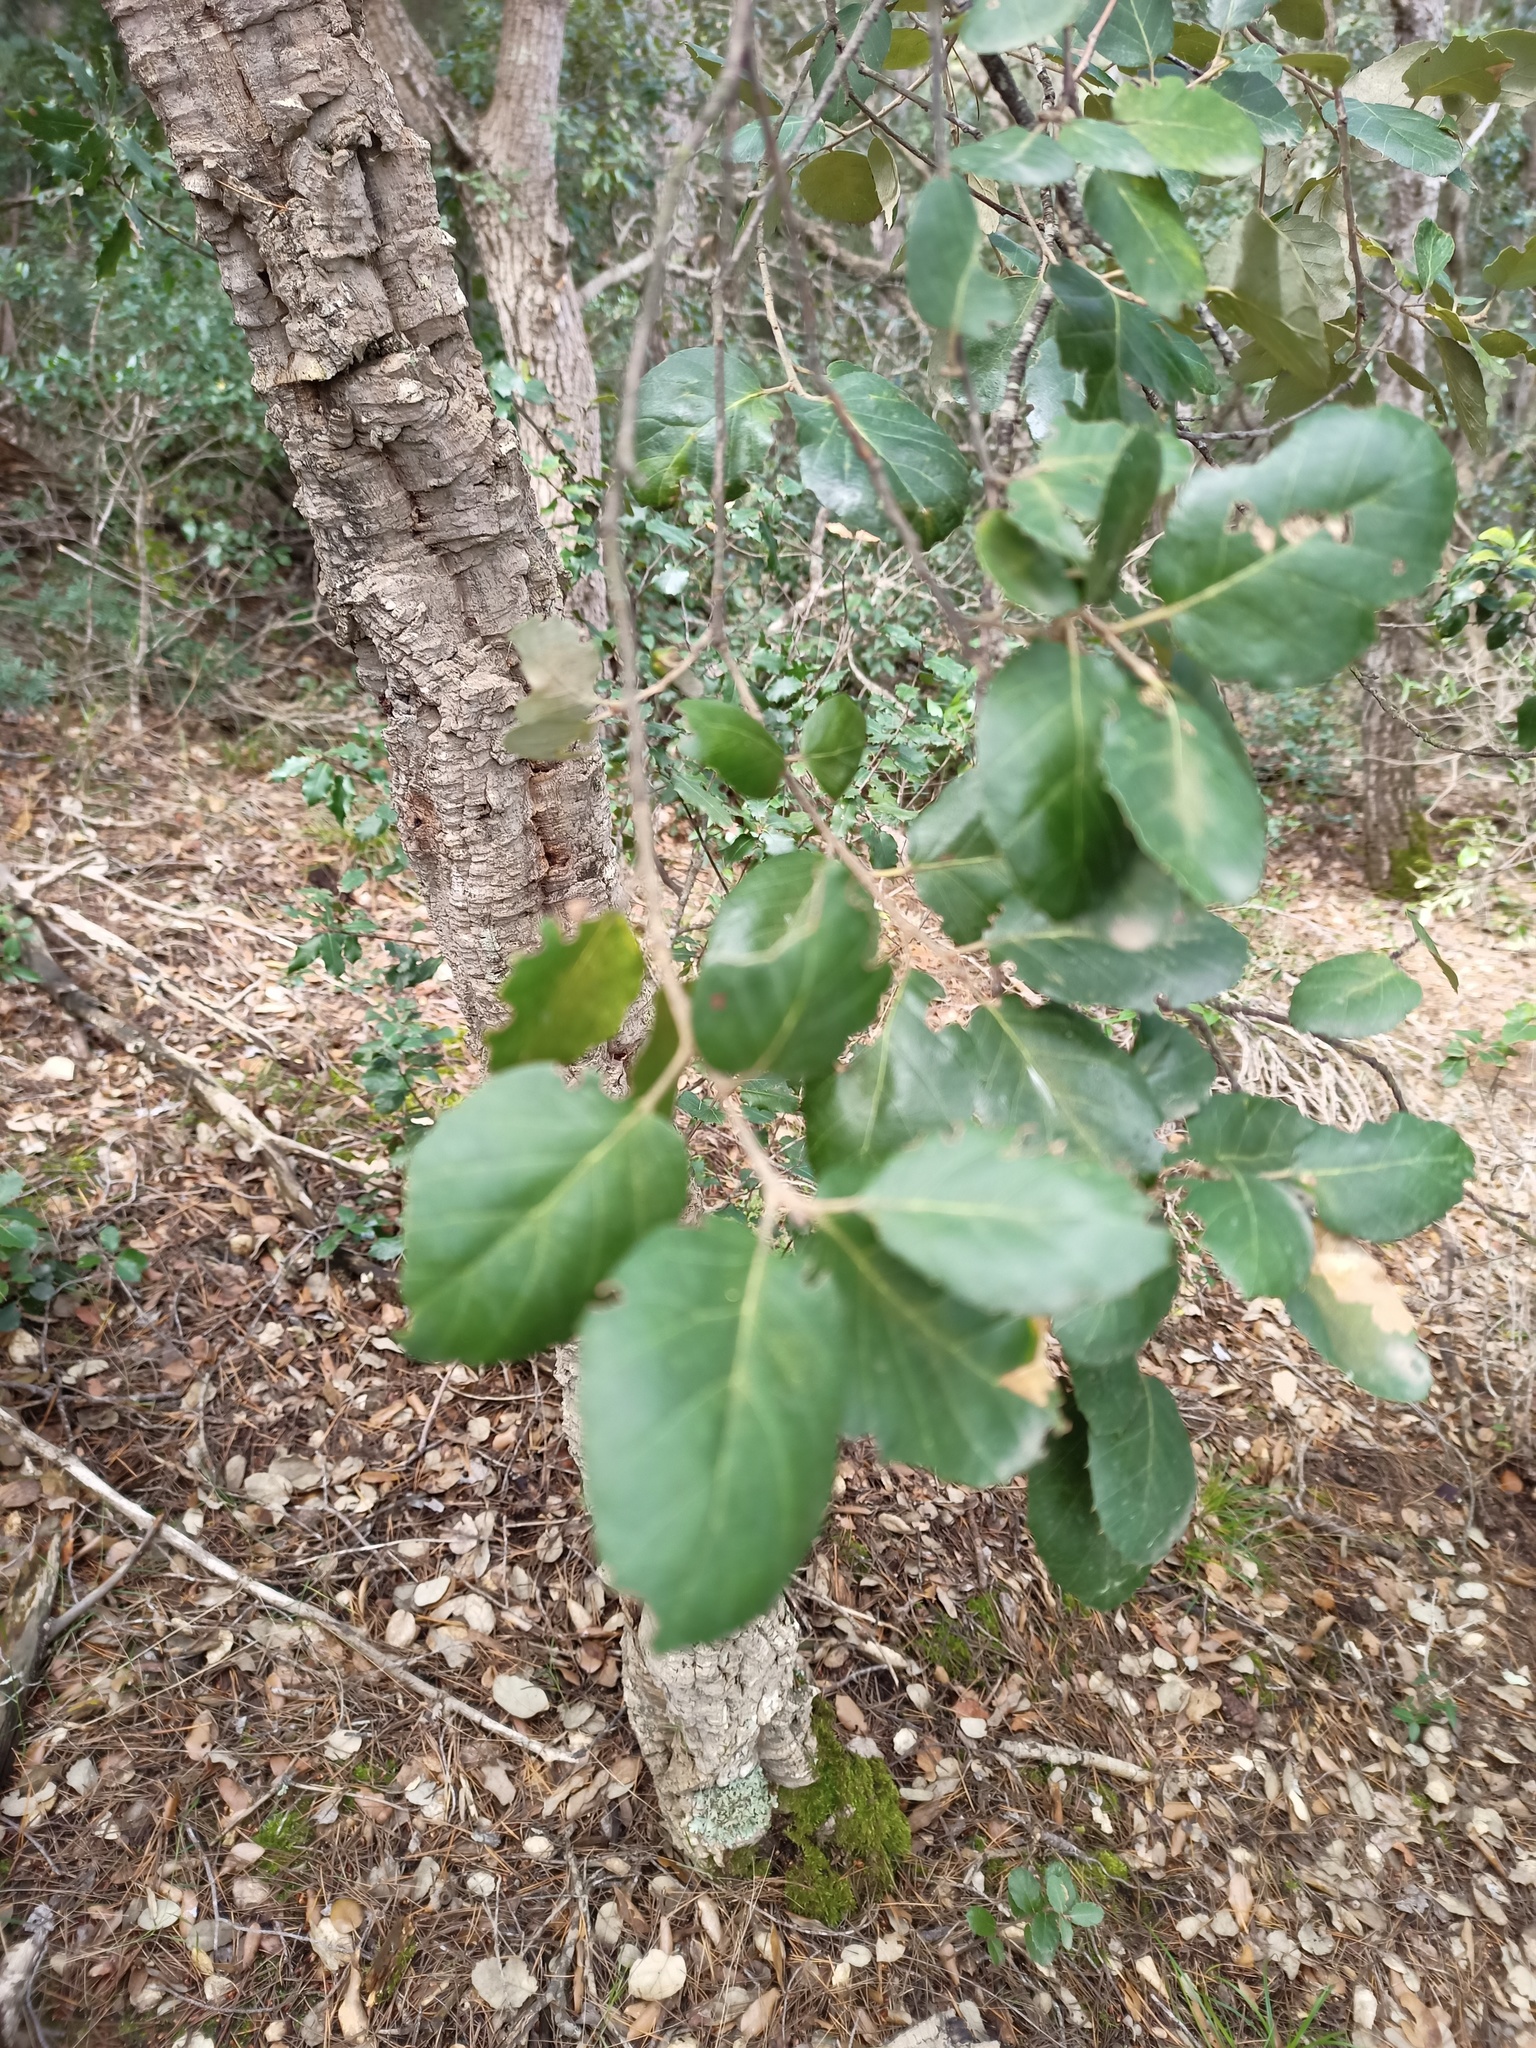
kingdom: Plantae
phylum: Tracheophyta
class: Magnoliopsida
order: Fagales
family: Fagaceae
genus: Quercus
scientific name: Quercus suber
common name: Cork oak
